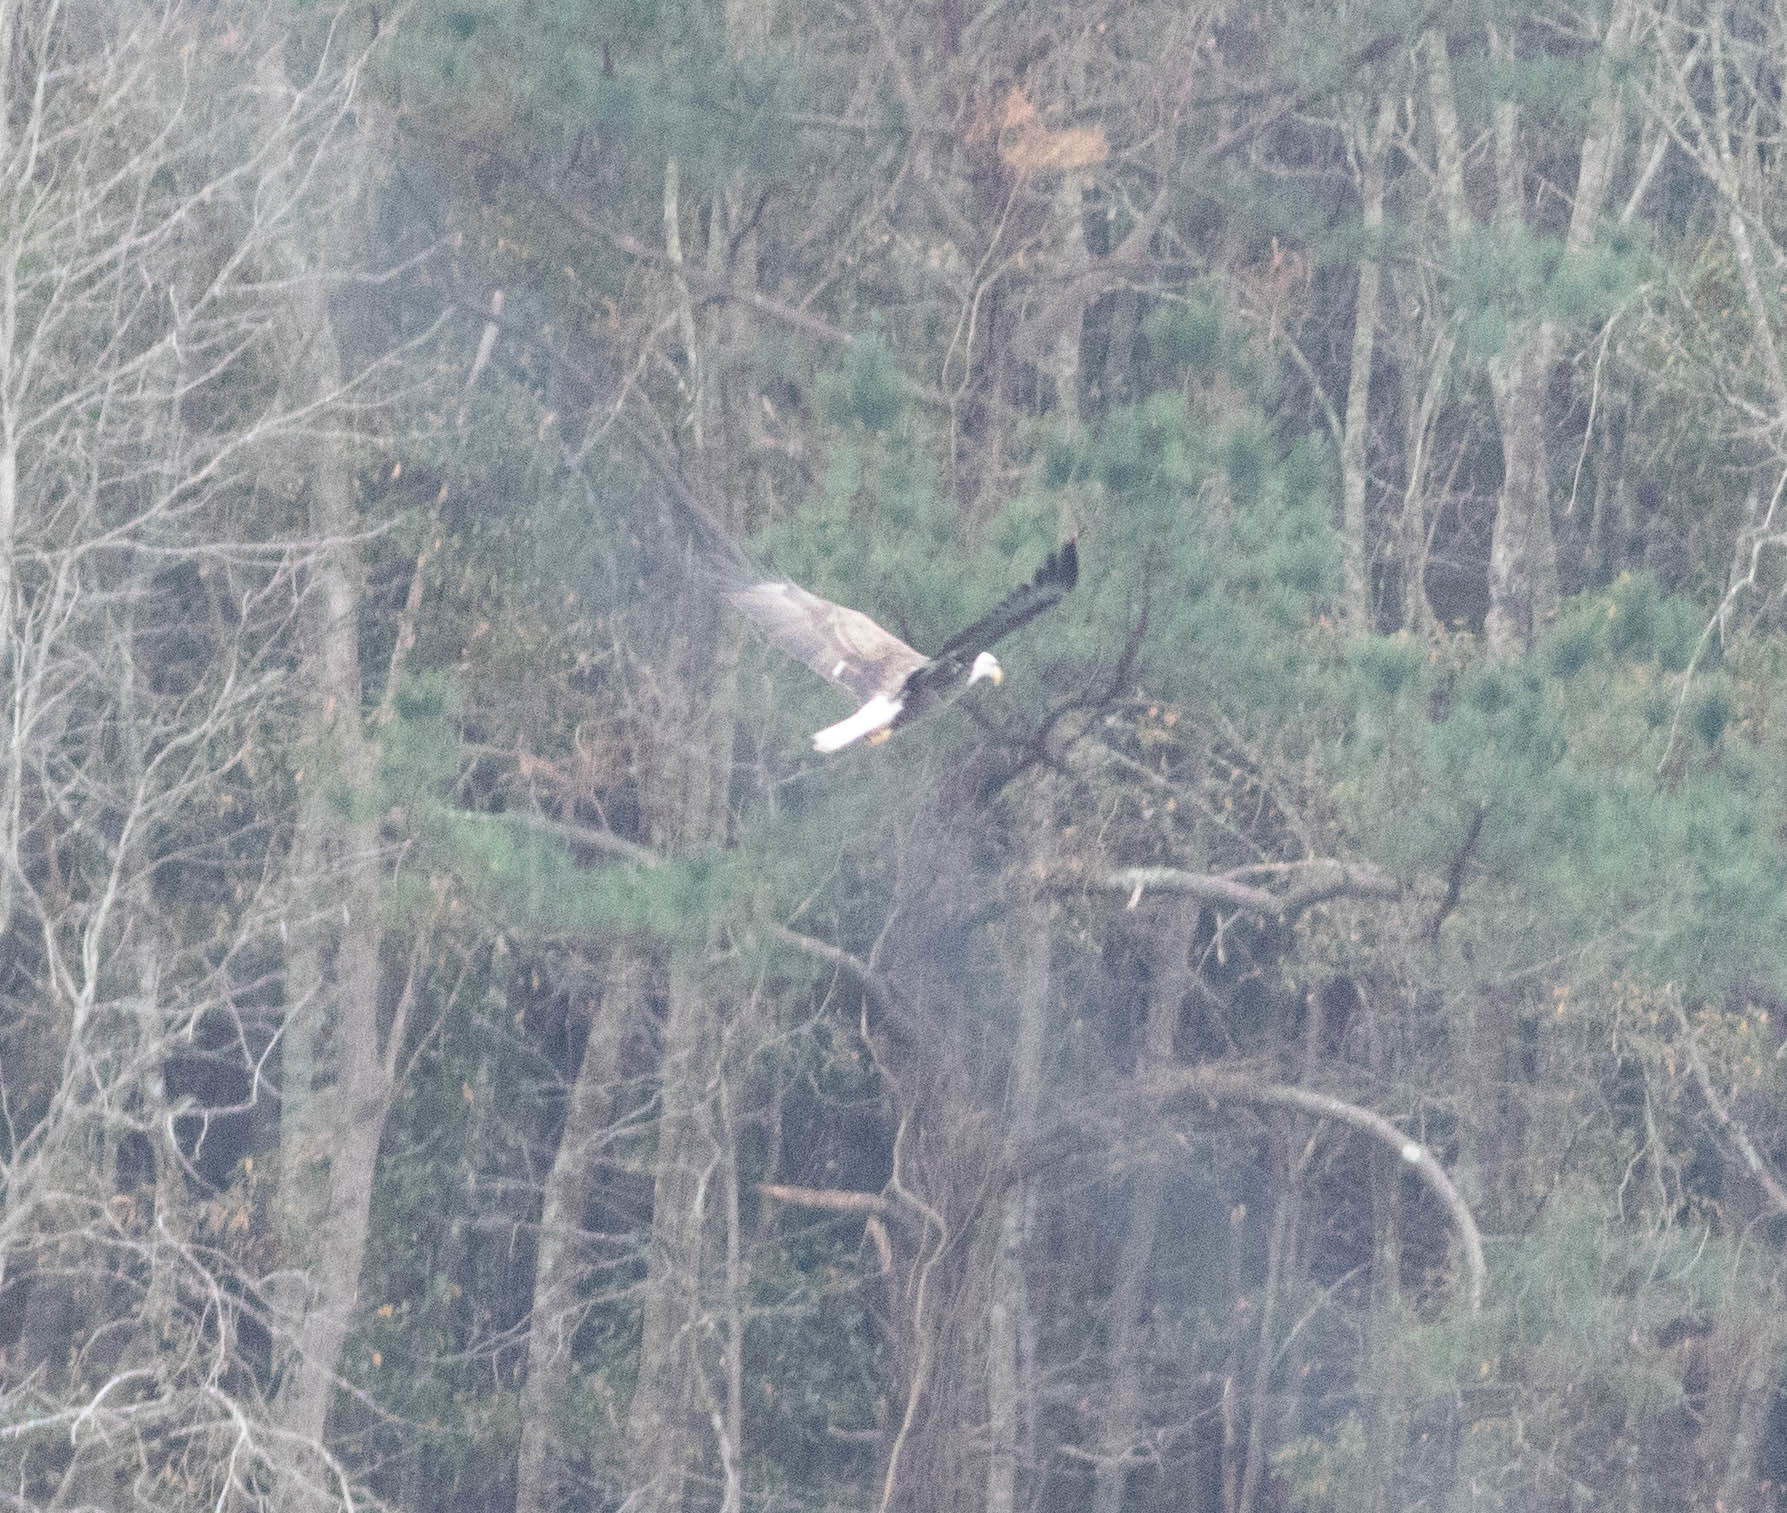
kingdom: Animalia
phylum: Chordata
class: Aves
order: Accipitriformes
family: Accipitridae
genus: Haliaeetus
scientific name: Haliaeetus leucocephalus
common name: Bald eagle
